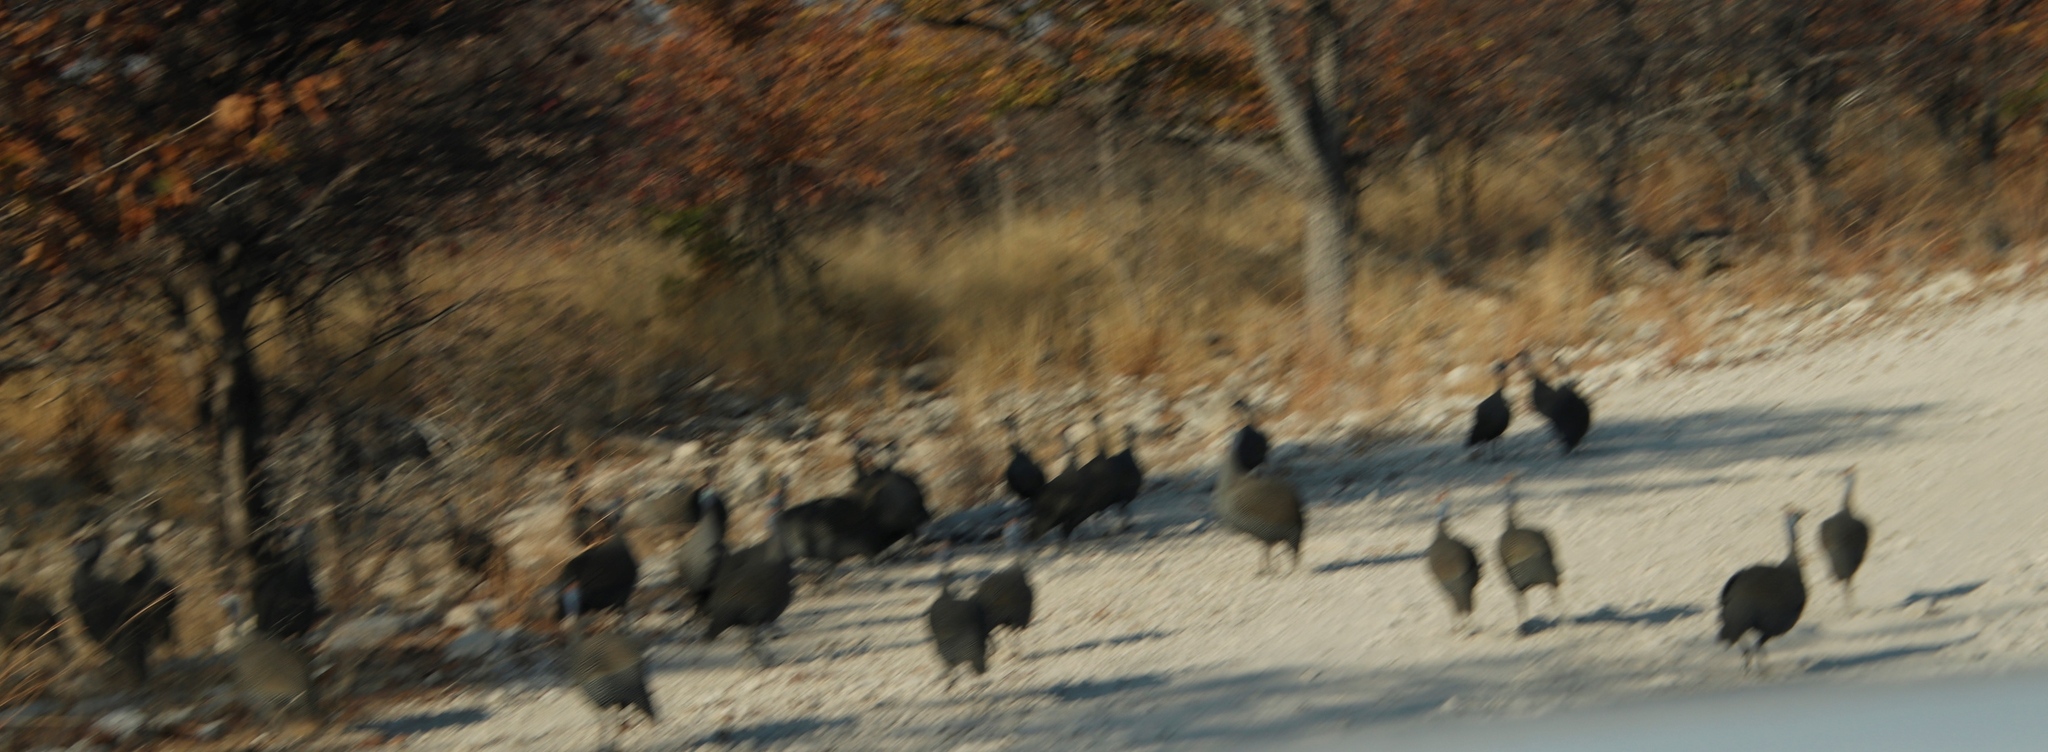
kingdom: Animalia
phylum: Chordata
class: Aves
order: Galliformes
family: Numididae
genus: Numida
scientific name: Numida meleagris
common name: Helmeted guineafowl
